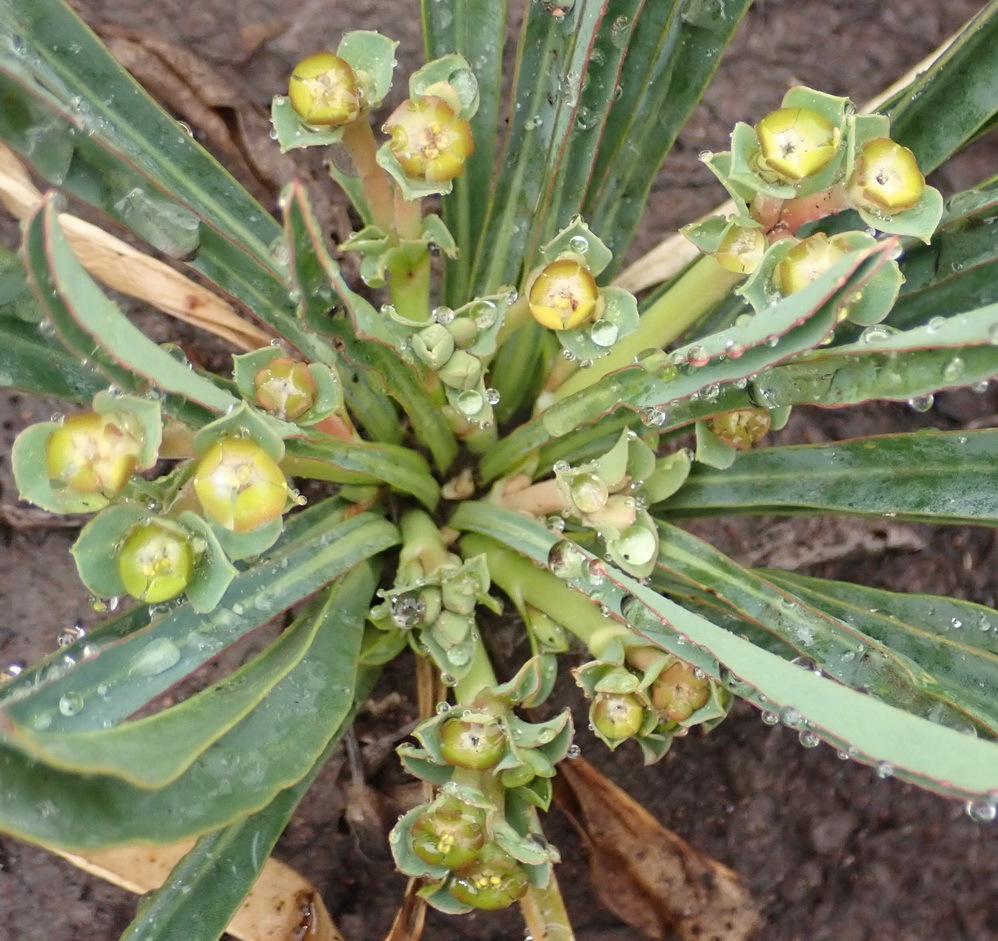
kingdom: Plantae
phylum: Tracheophyta
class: Magnoliopsida
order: Malpighiales
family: Euphorbiaceae
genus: Euphorbia
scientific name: Euphorbia silenifolia
